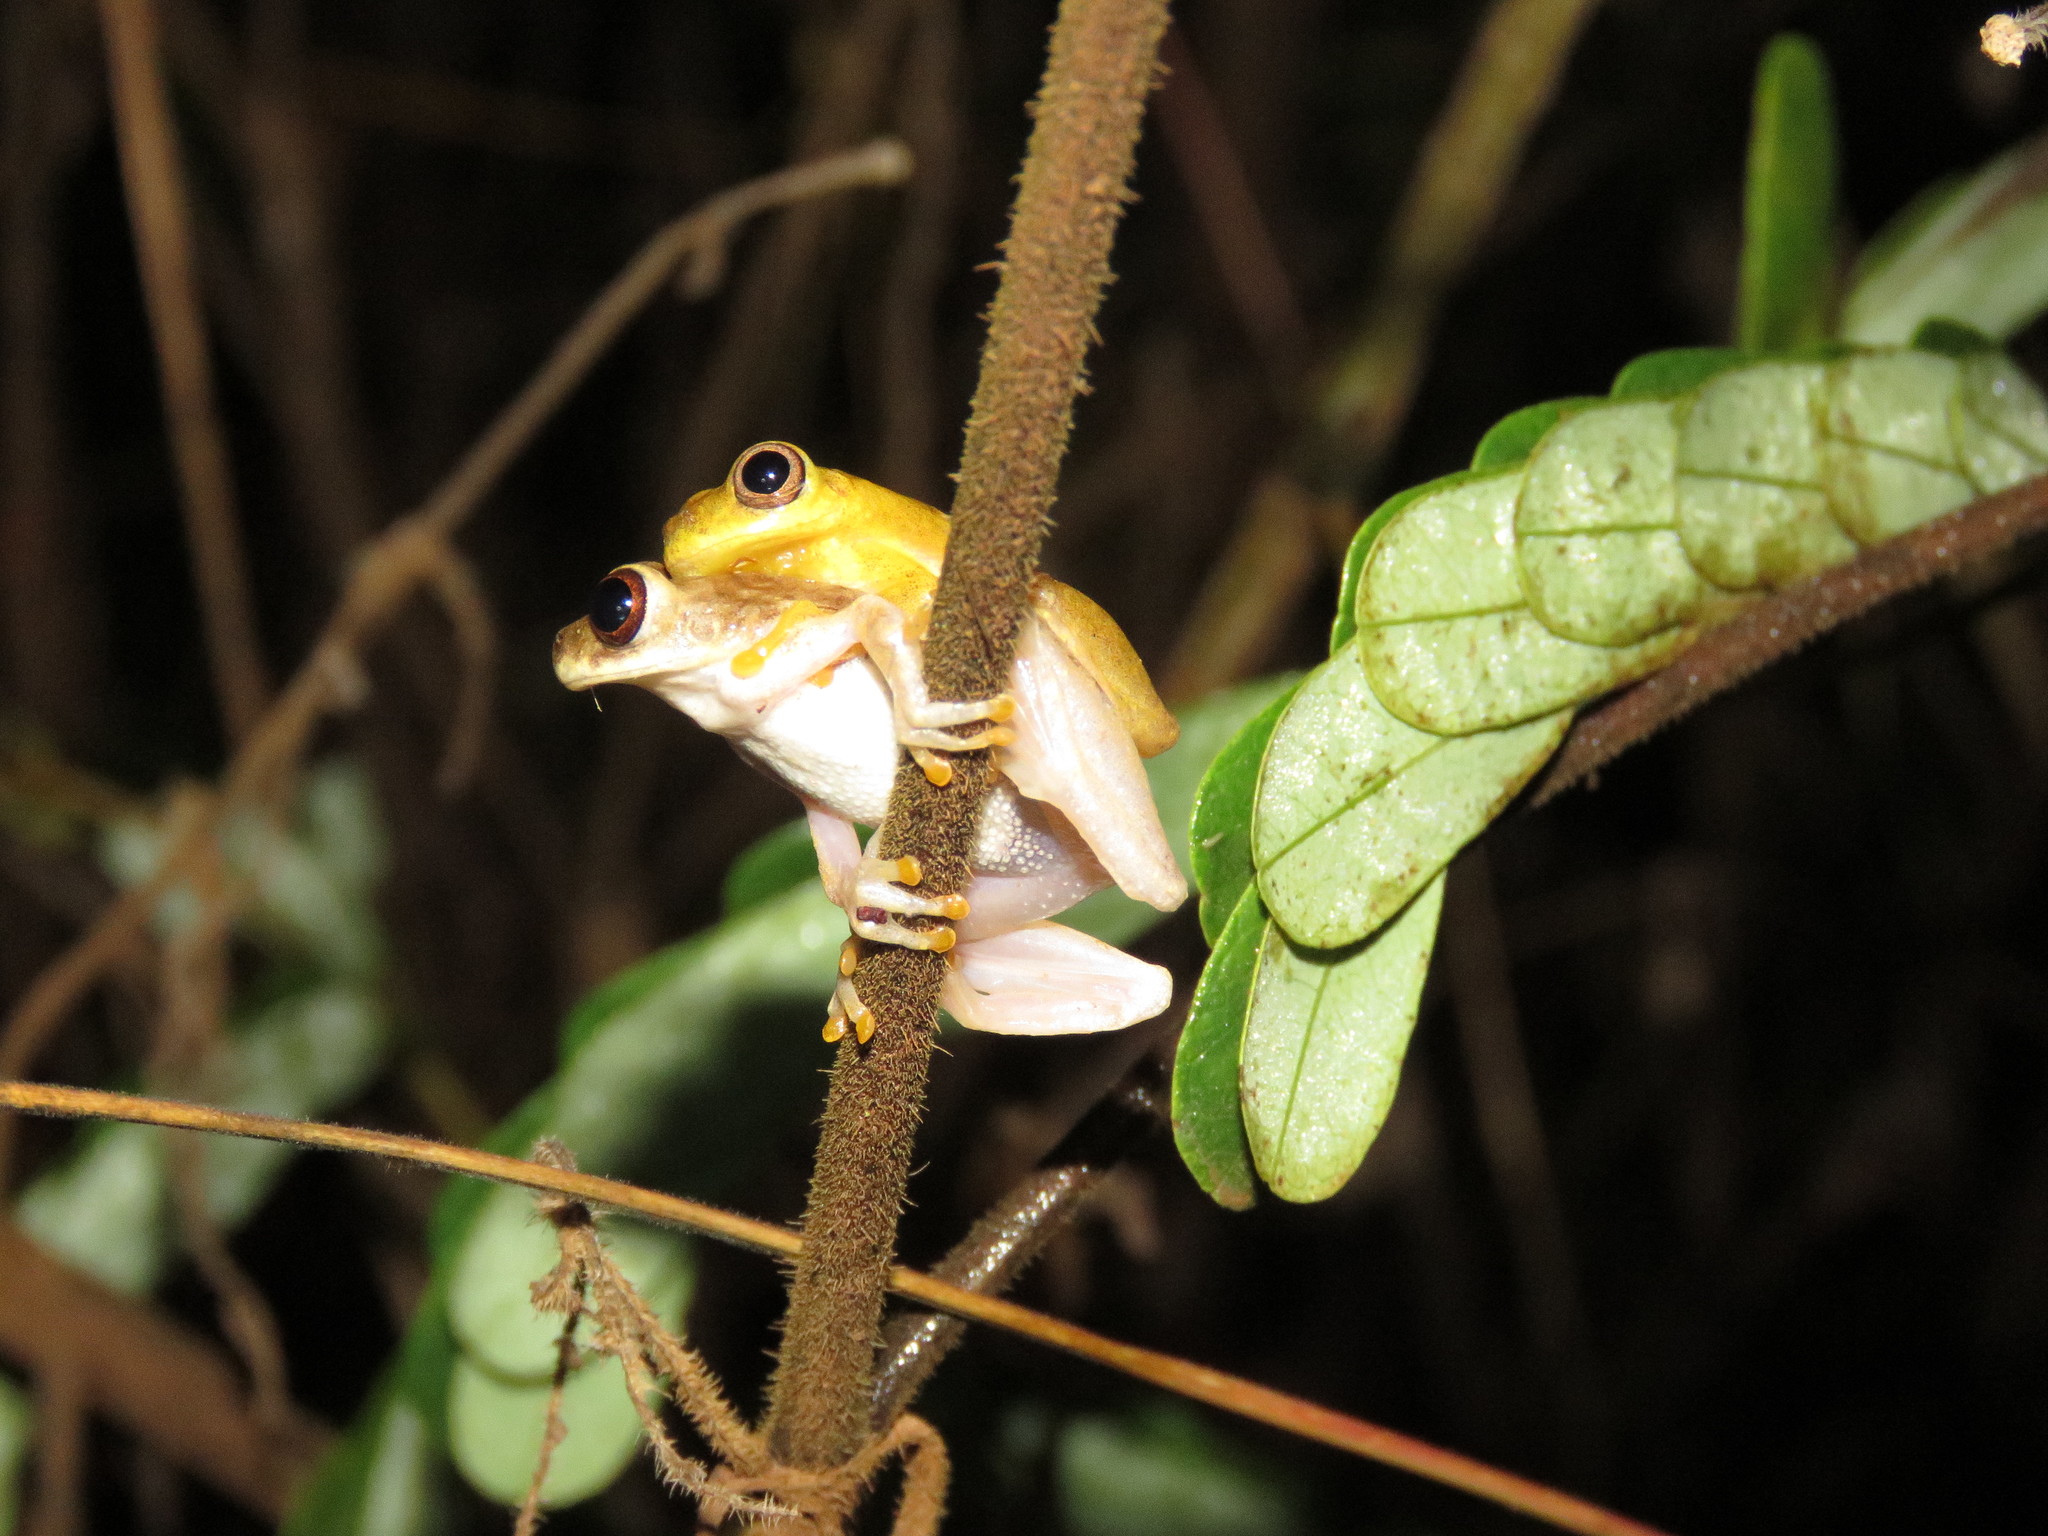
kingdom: Animalia
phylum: Chordata
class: Amphibia
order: Anura
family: Hylidae
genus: Dendropsophus
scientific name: Dendropsophus delarivai
